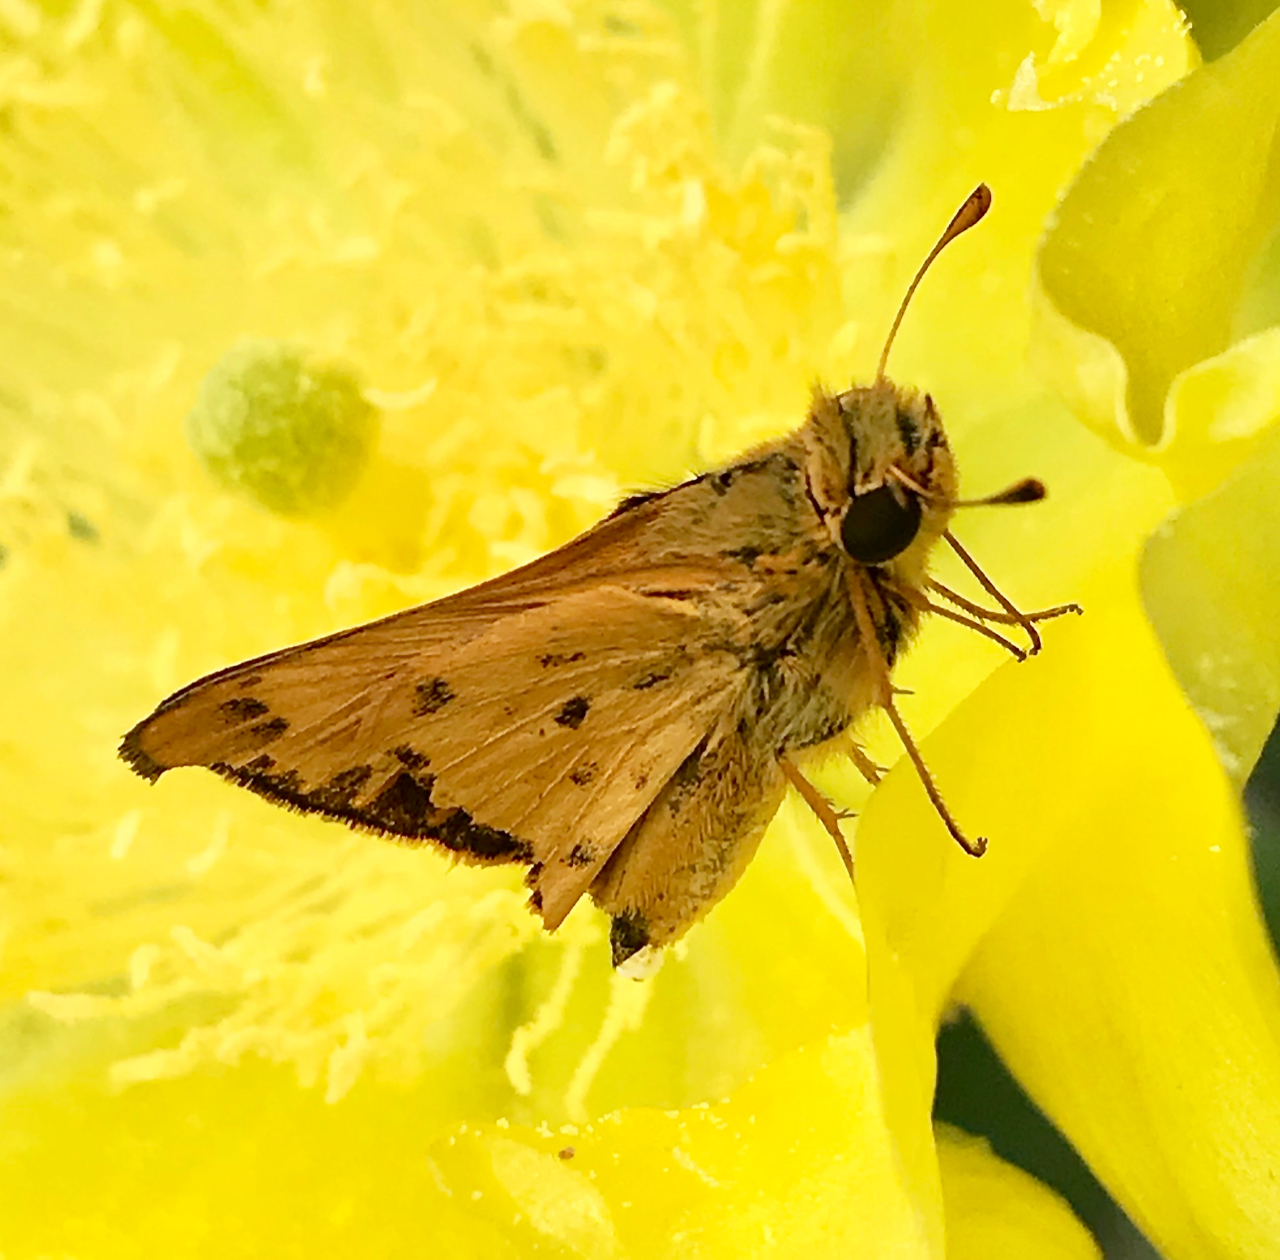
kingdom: Animalia
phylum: Arthropoda
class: Insecta
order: Lepidoptera
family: Hesperiidae
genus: Hylephila
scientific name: Hylephila phyleus
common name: Fiery skipper
